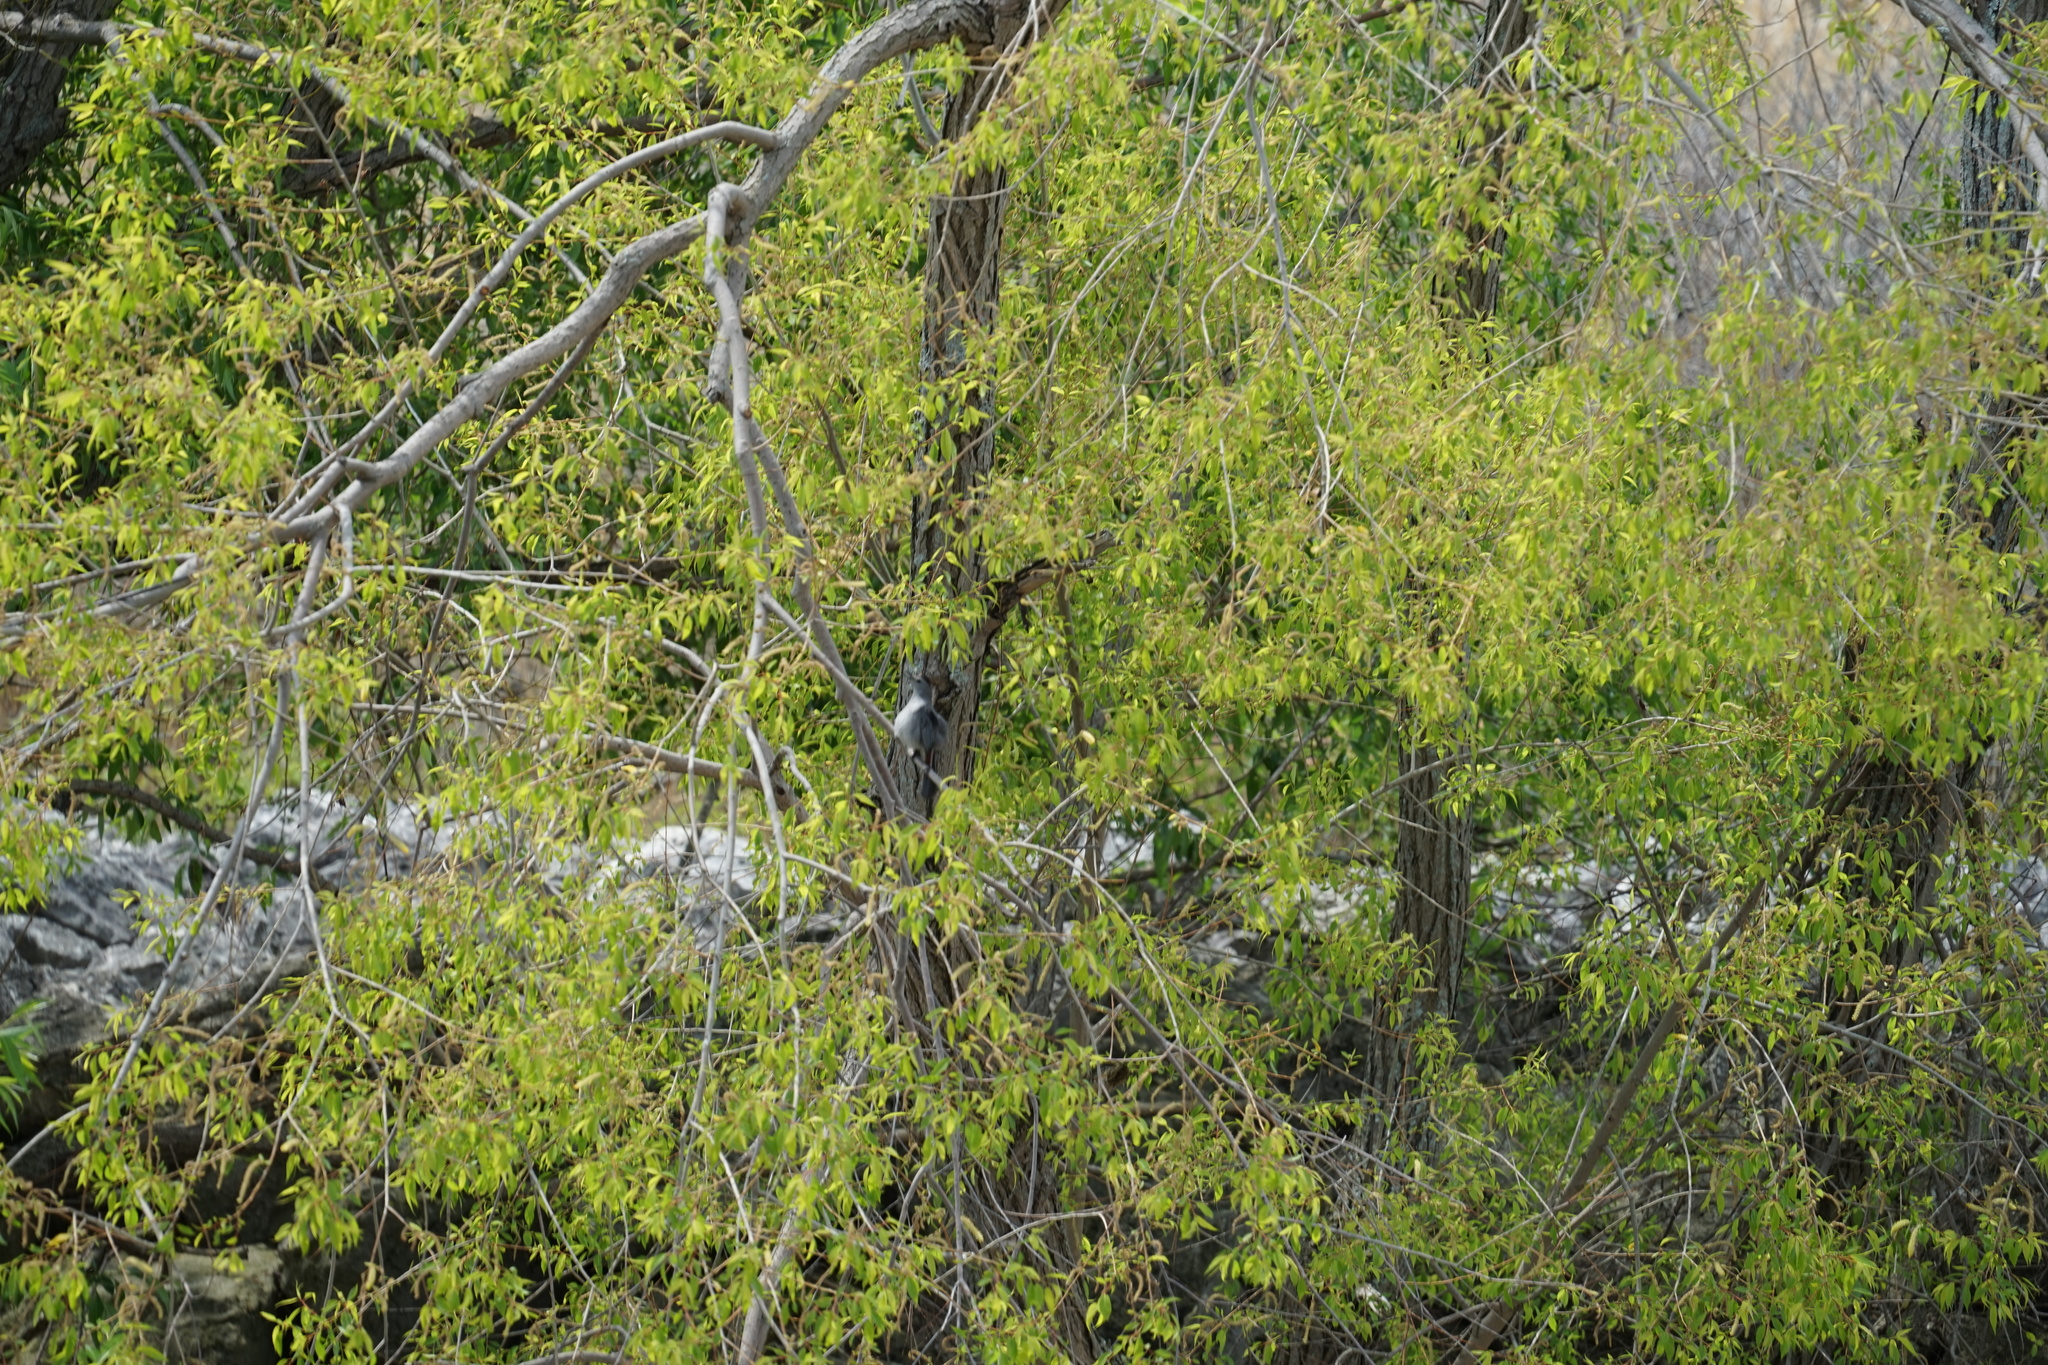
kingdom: Animalia
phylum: Chordata
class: Aves
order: Passeriformes
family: Mimidae
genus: Dumetella
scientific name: Dumetella carolinensis
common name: Gray catbird
